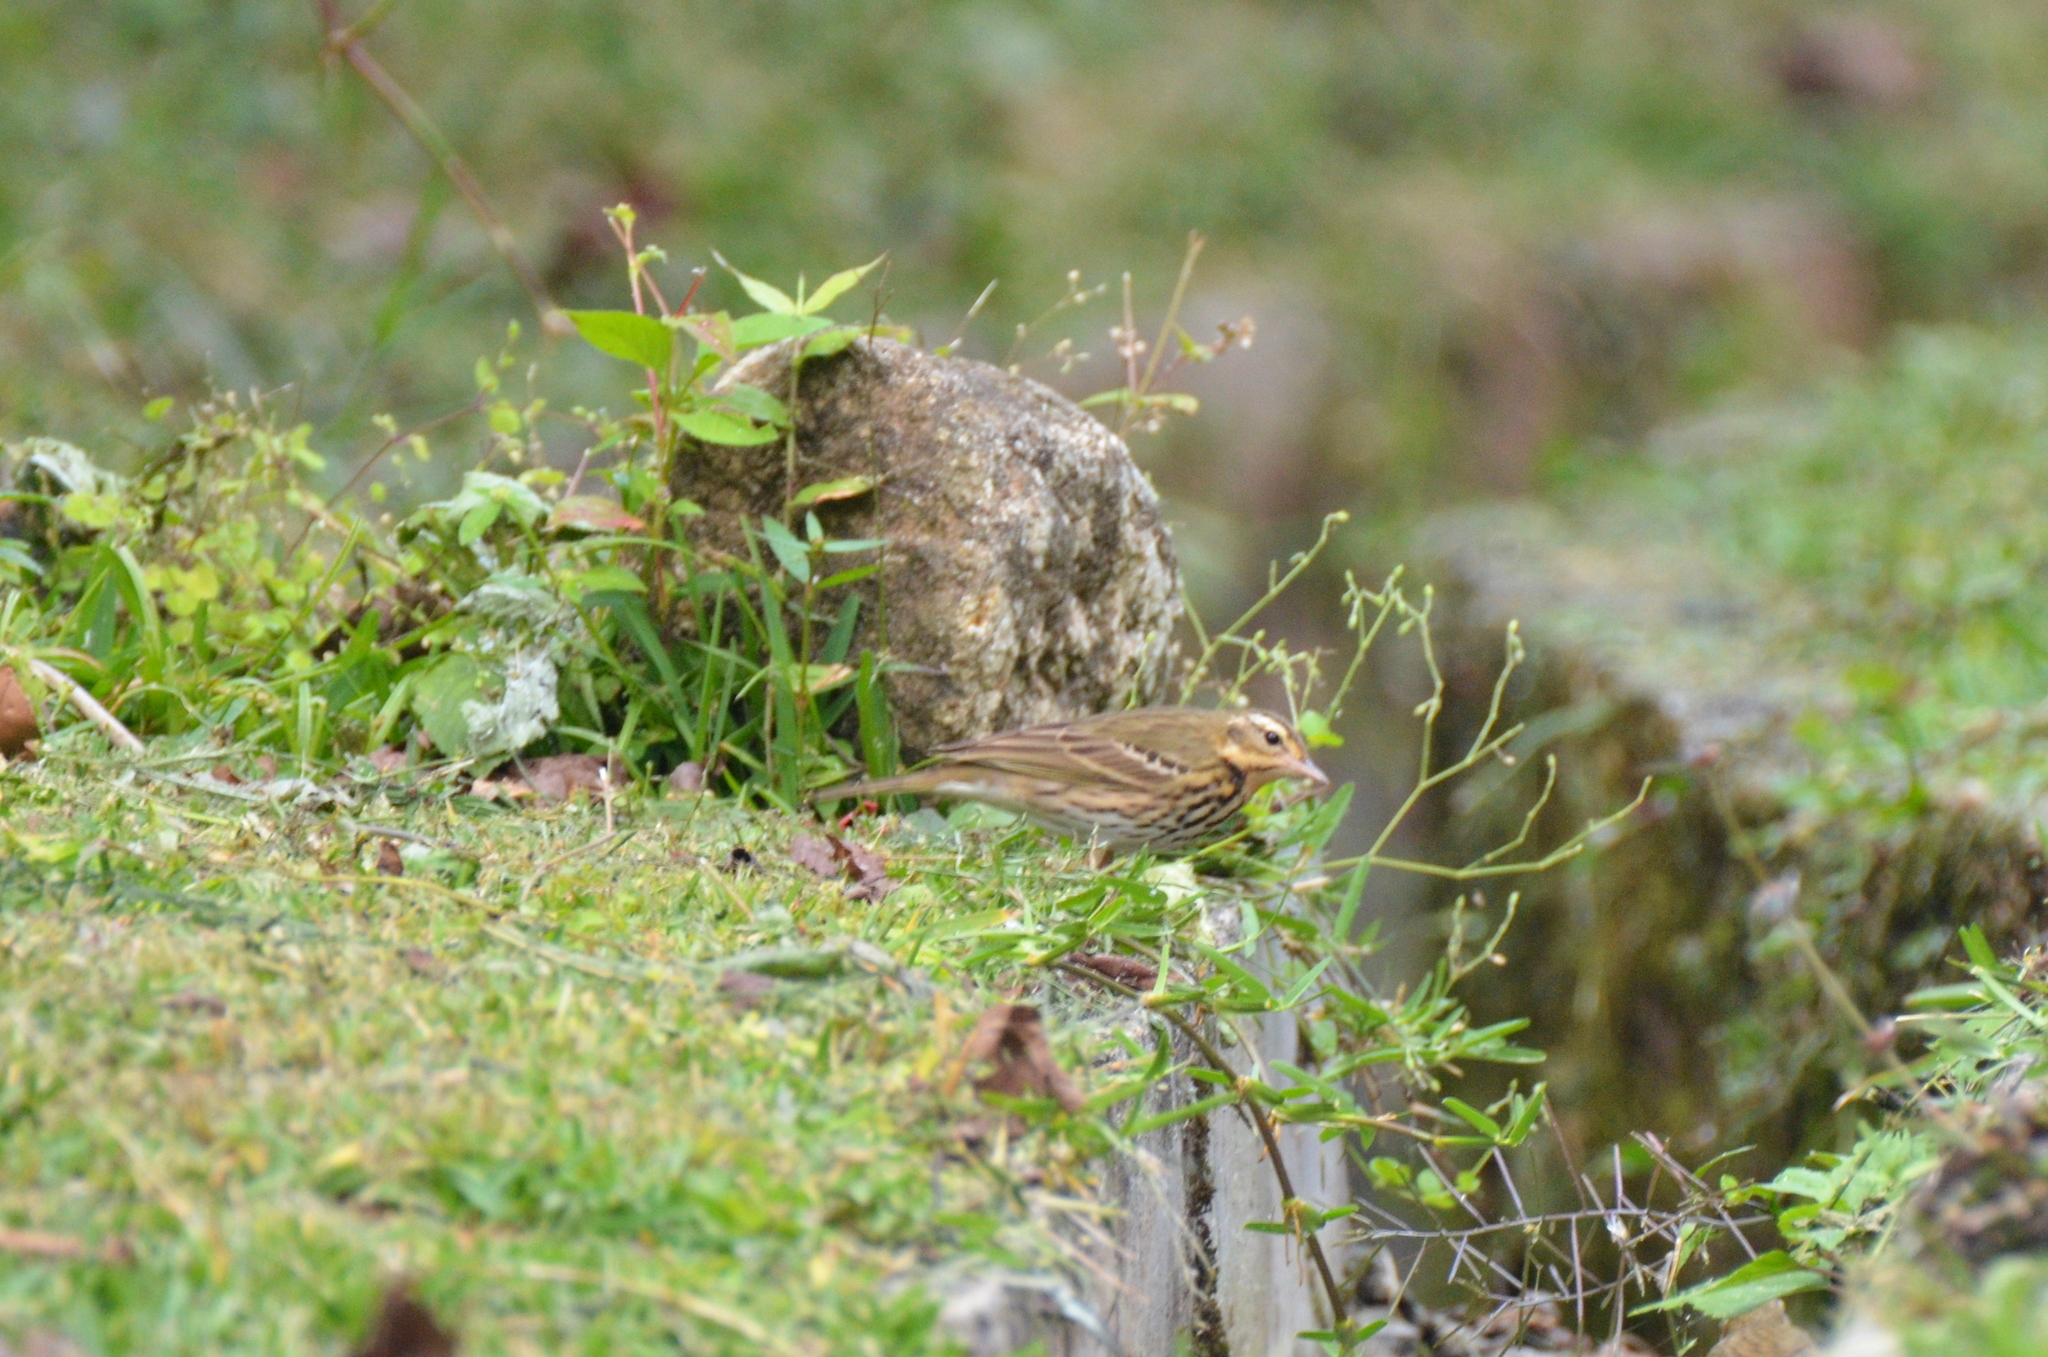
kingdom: Animalia
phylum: Chordata
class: Aves
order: Passeriformes
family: Motacillidae
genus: Anthus
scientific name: Anthus hodgsoni
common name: Olive-backed pipit
